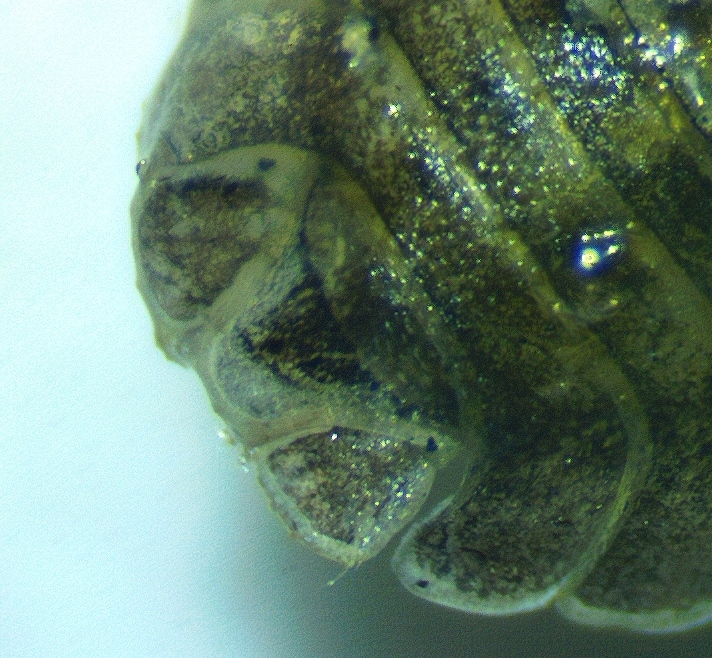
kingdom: Animalia
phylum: Arthropoda
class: Malacostraca
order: Isopoda
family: Armadillidiidae
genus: Armadillidium
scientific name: Armadillidium nasatum
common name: Isopod
